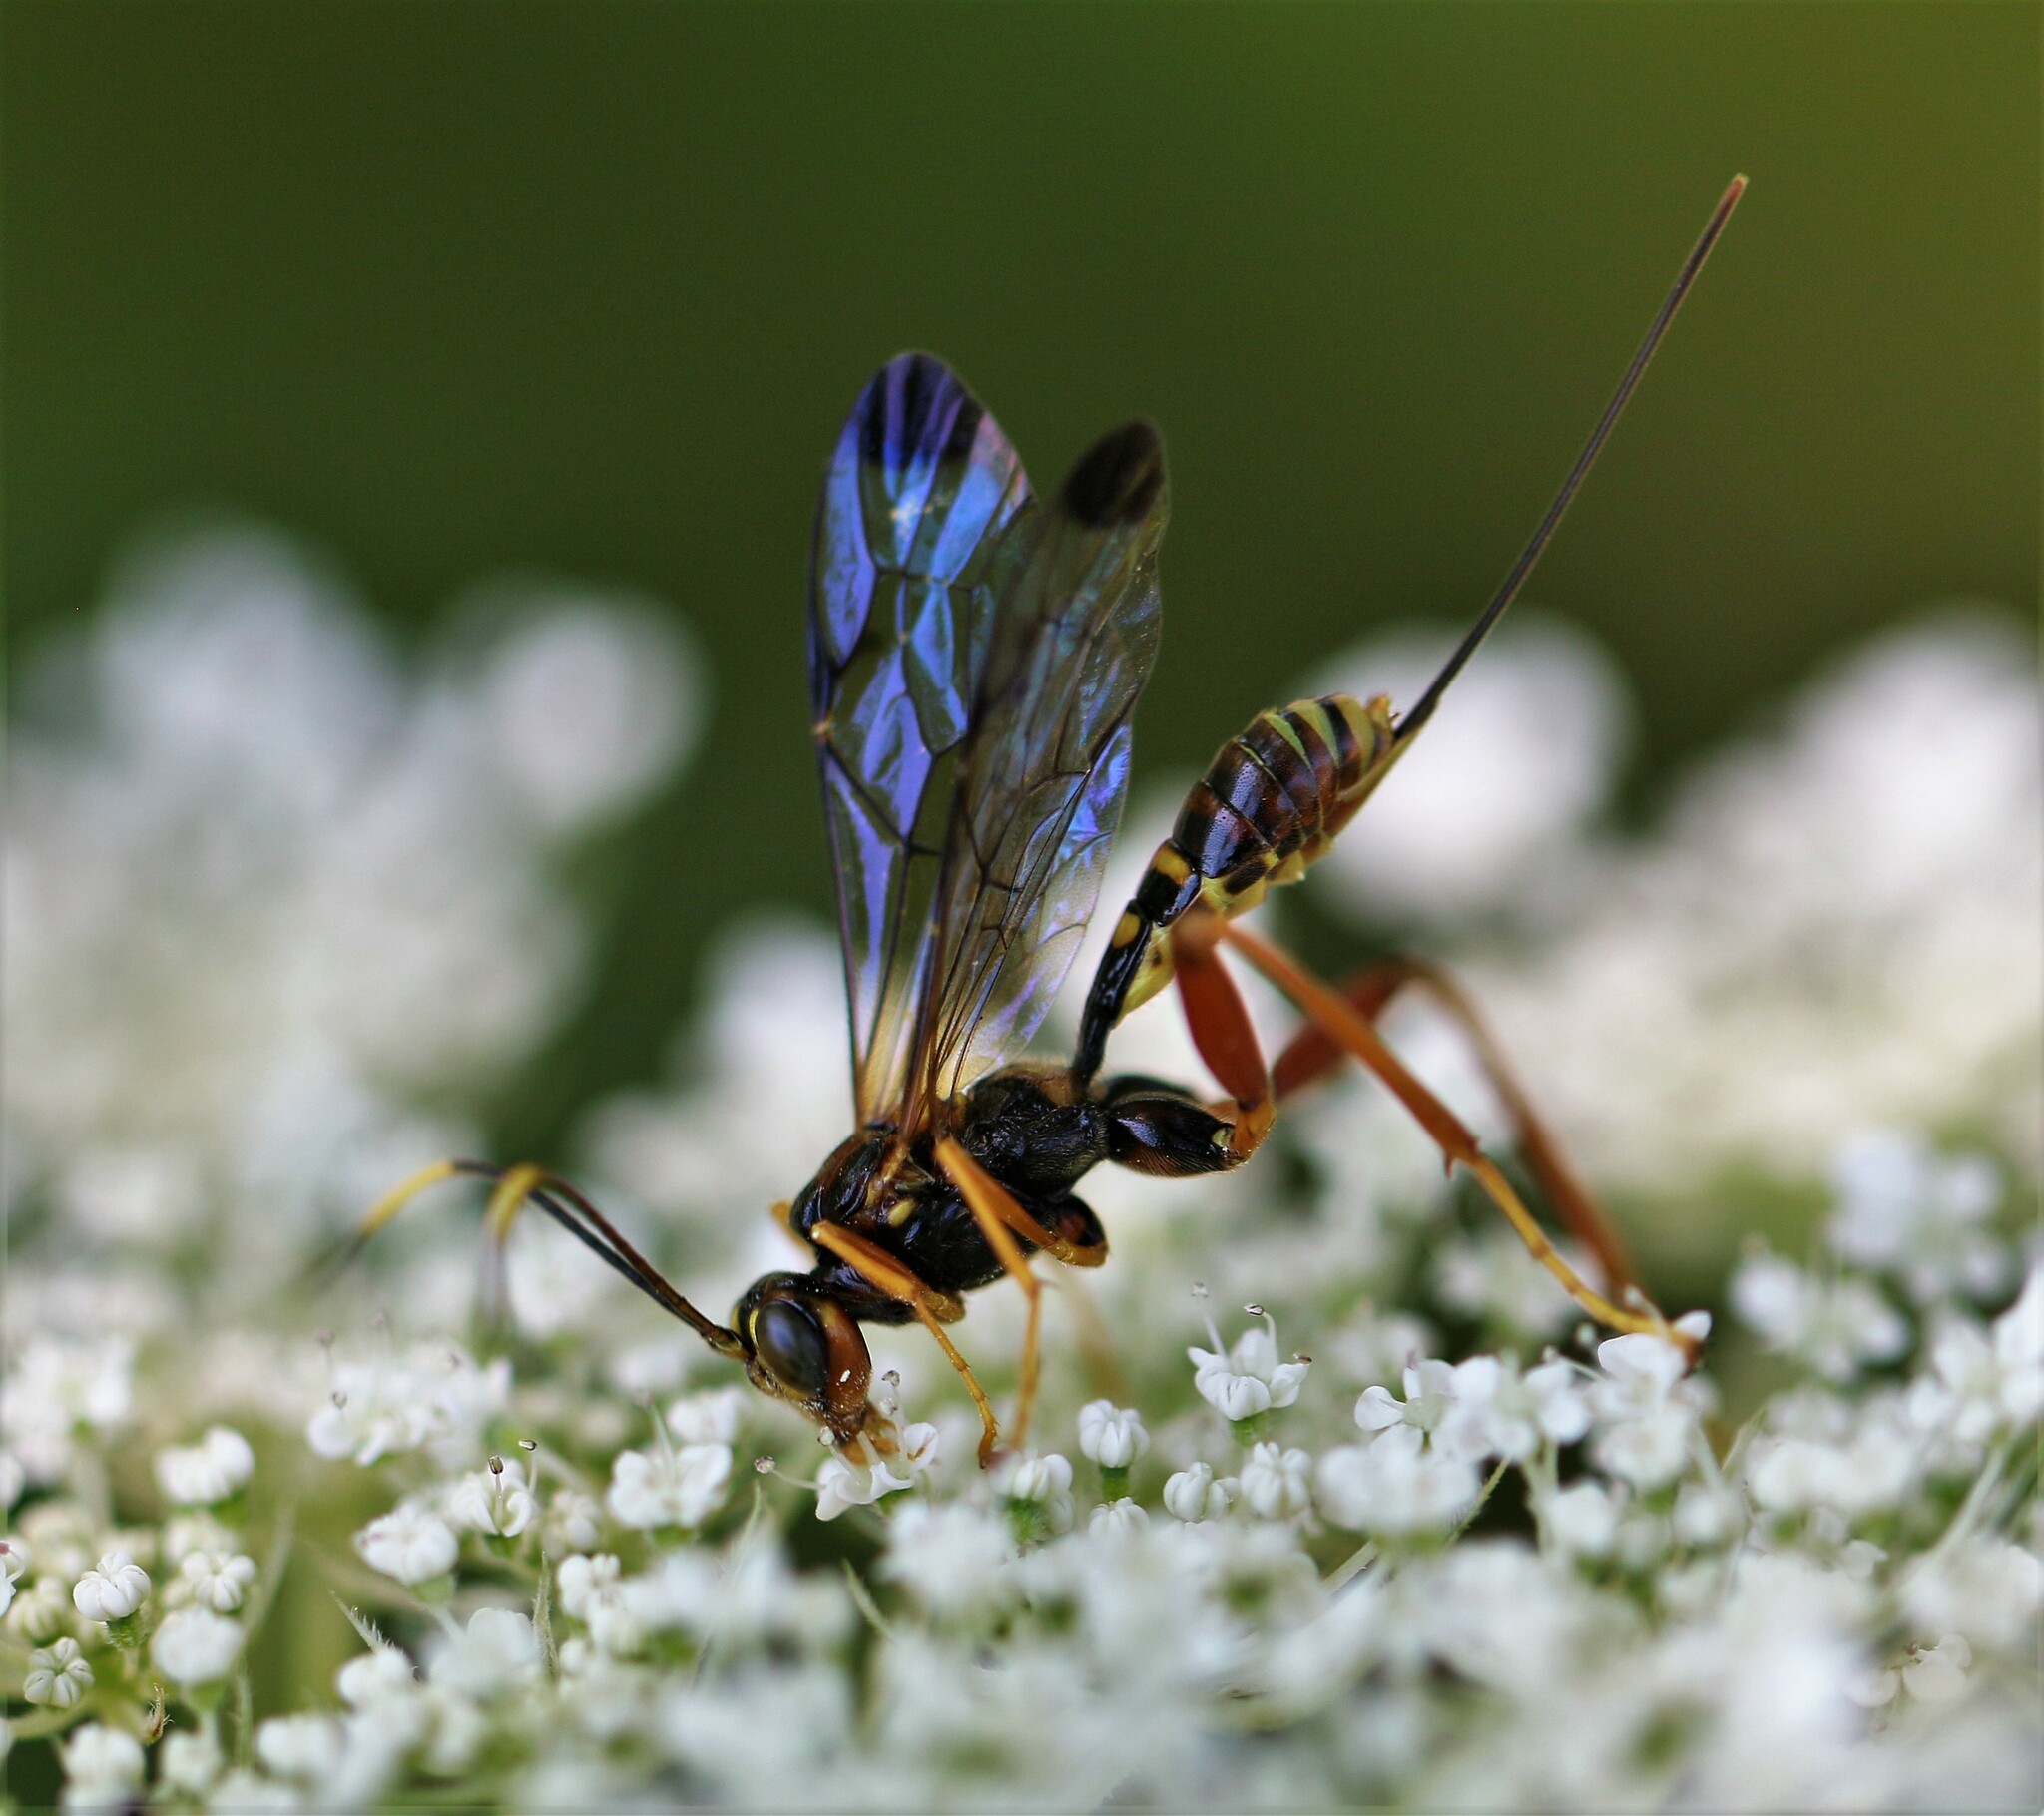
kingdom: Animalia
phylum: Arthropoda
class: Insecta
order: Hymenoptera
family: Ichneumonidae
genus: Spilopteron
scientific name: Spilopteron vicinum
